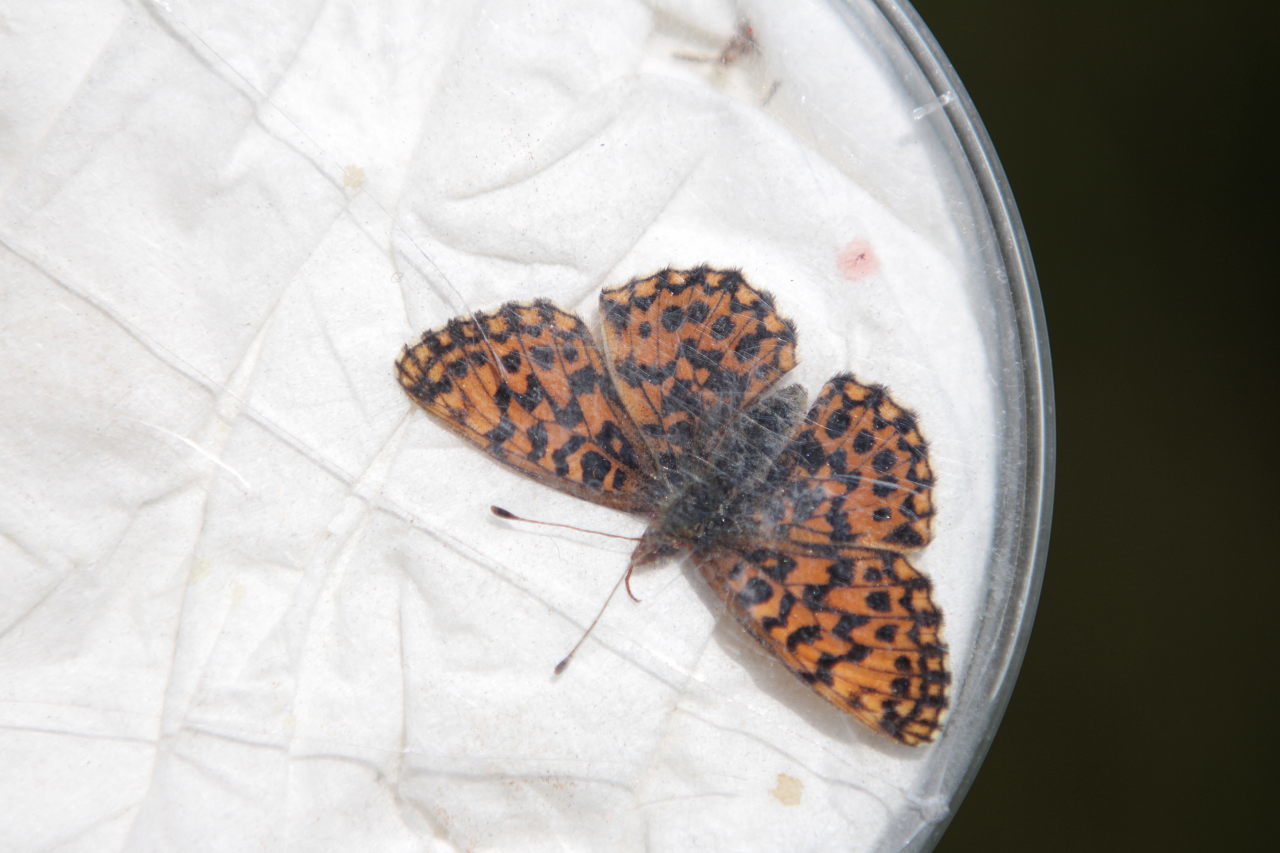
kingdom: Animalia
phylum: Arthropoda
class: Insecta
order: Lepidoptera
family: Nymphalidae
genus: Boloria
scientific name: Boloria dia
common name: Weaver's fritillary
